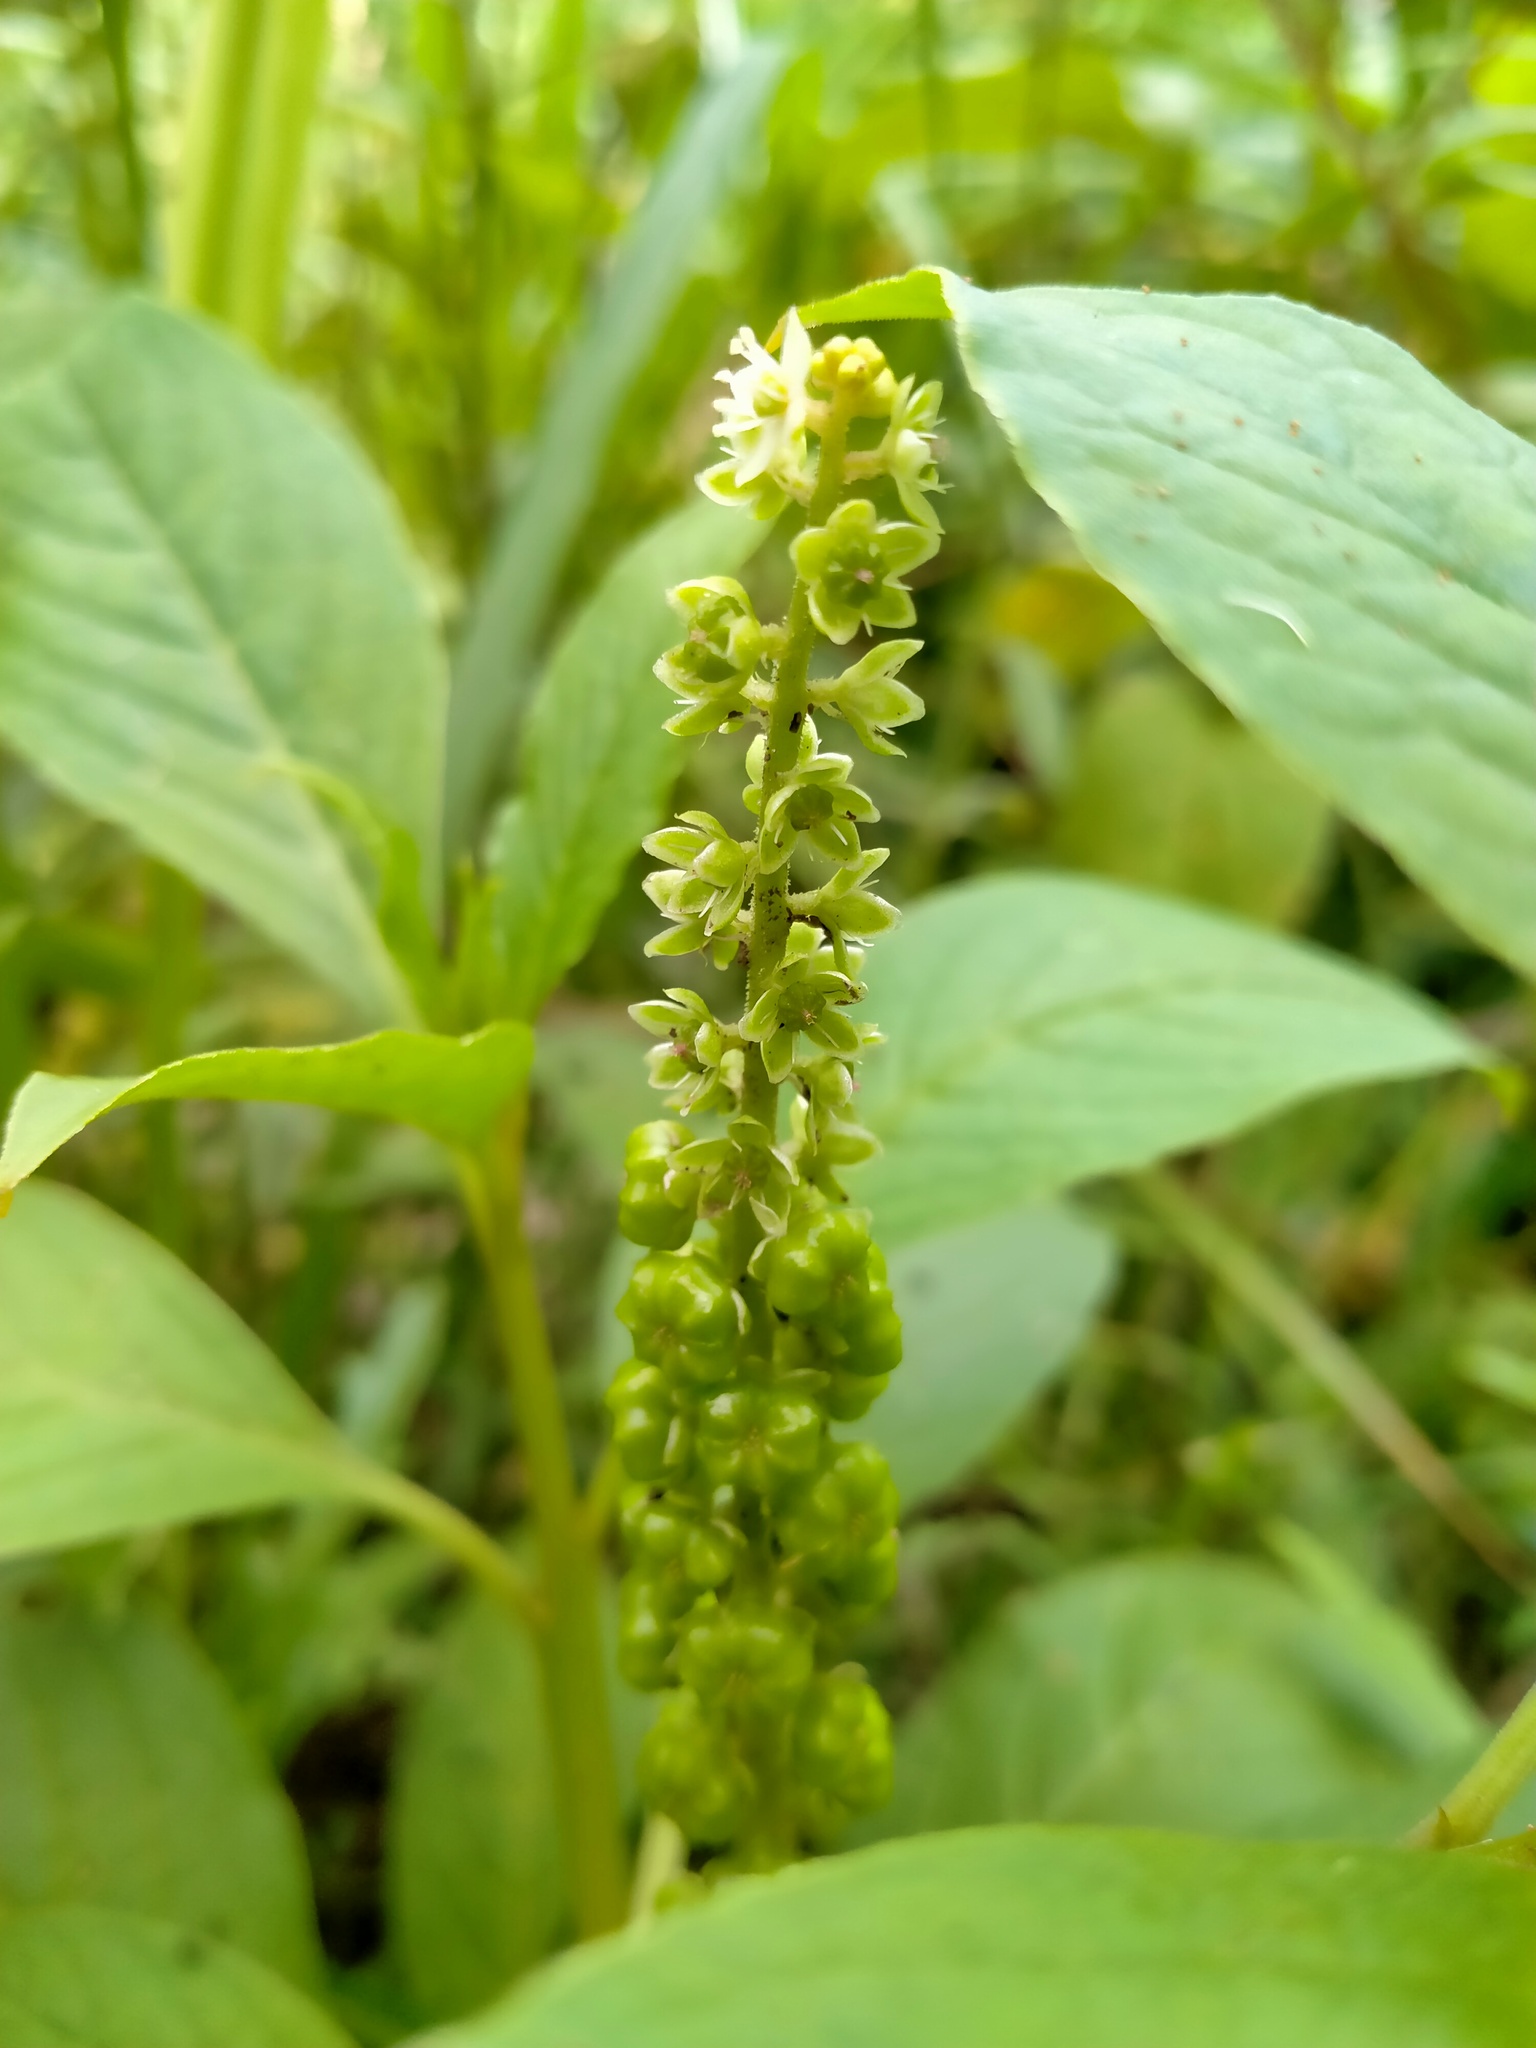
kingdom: Plantae
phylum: Tracheophyta
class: Magnoliopsida
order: Caryophyllales
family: Phytolaccaceae
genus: Phytolacca
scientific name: Phytolacca icosandra
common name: Button pokeweed
